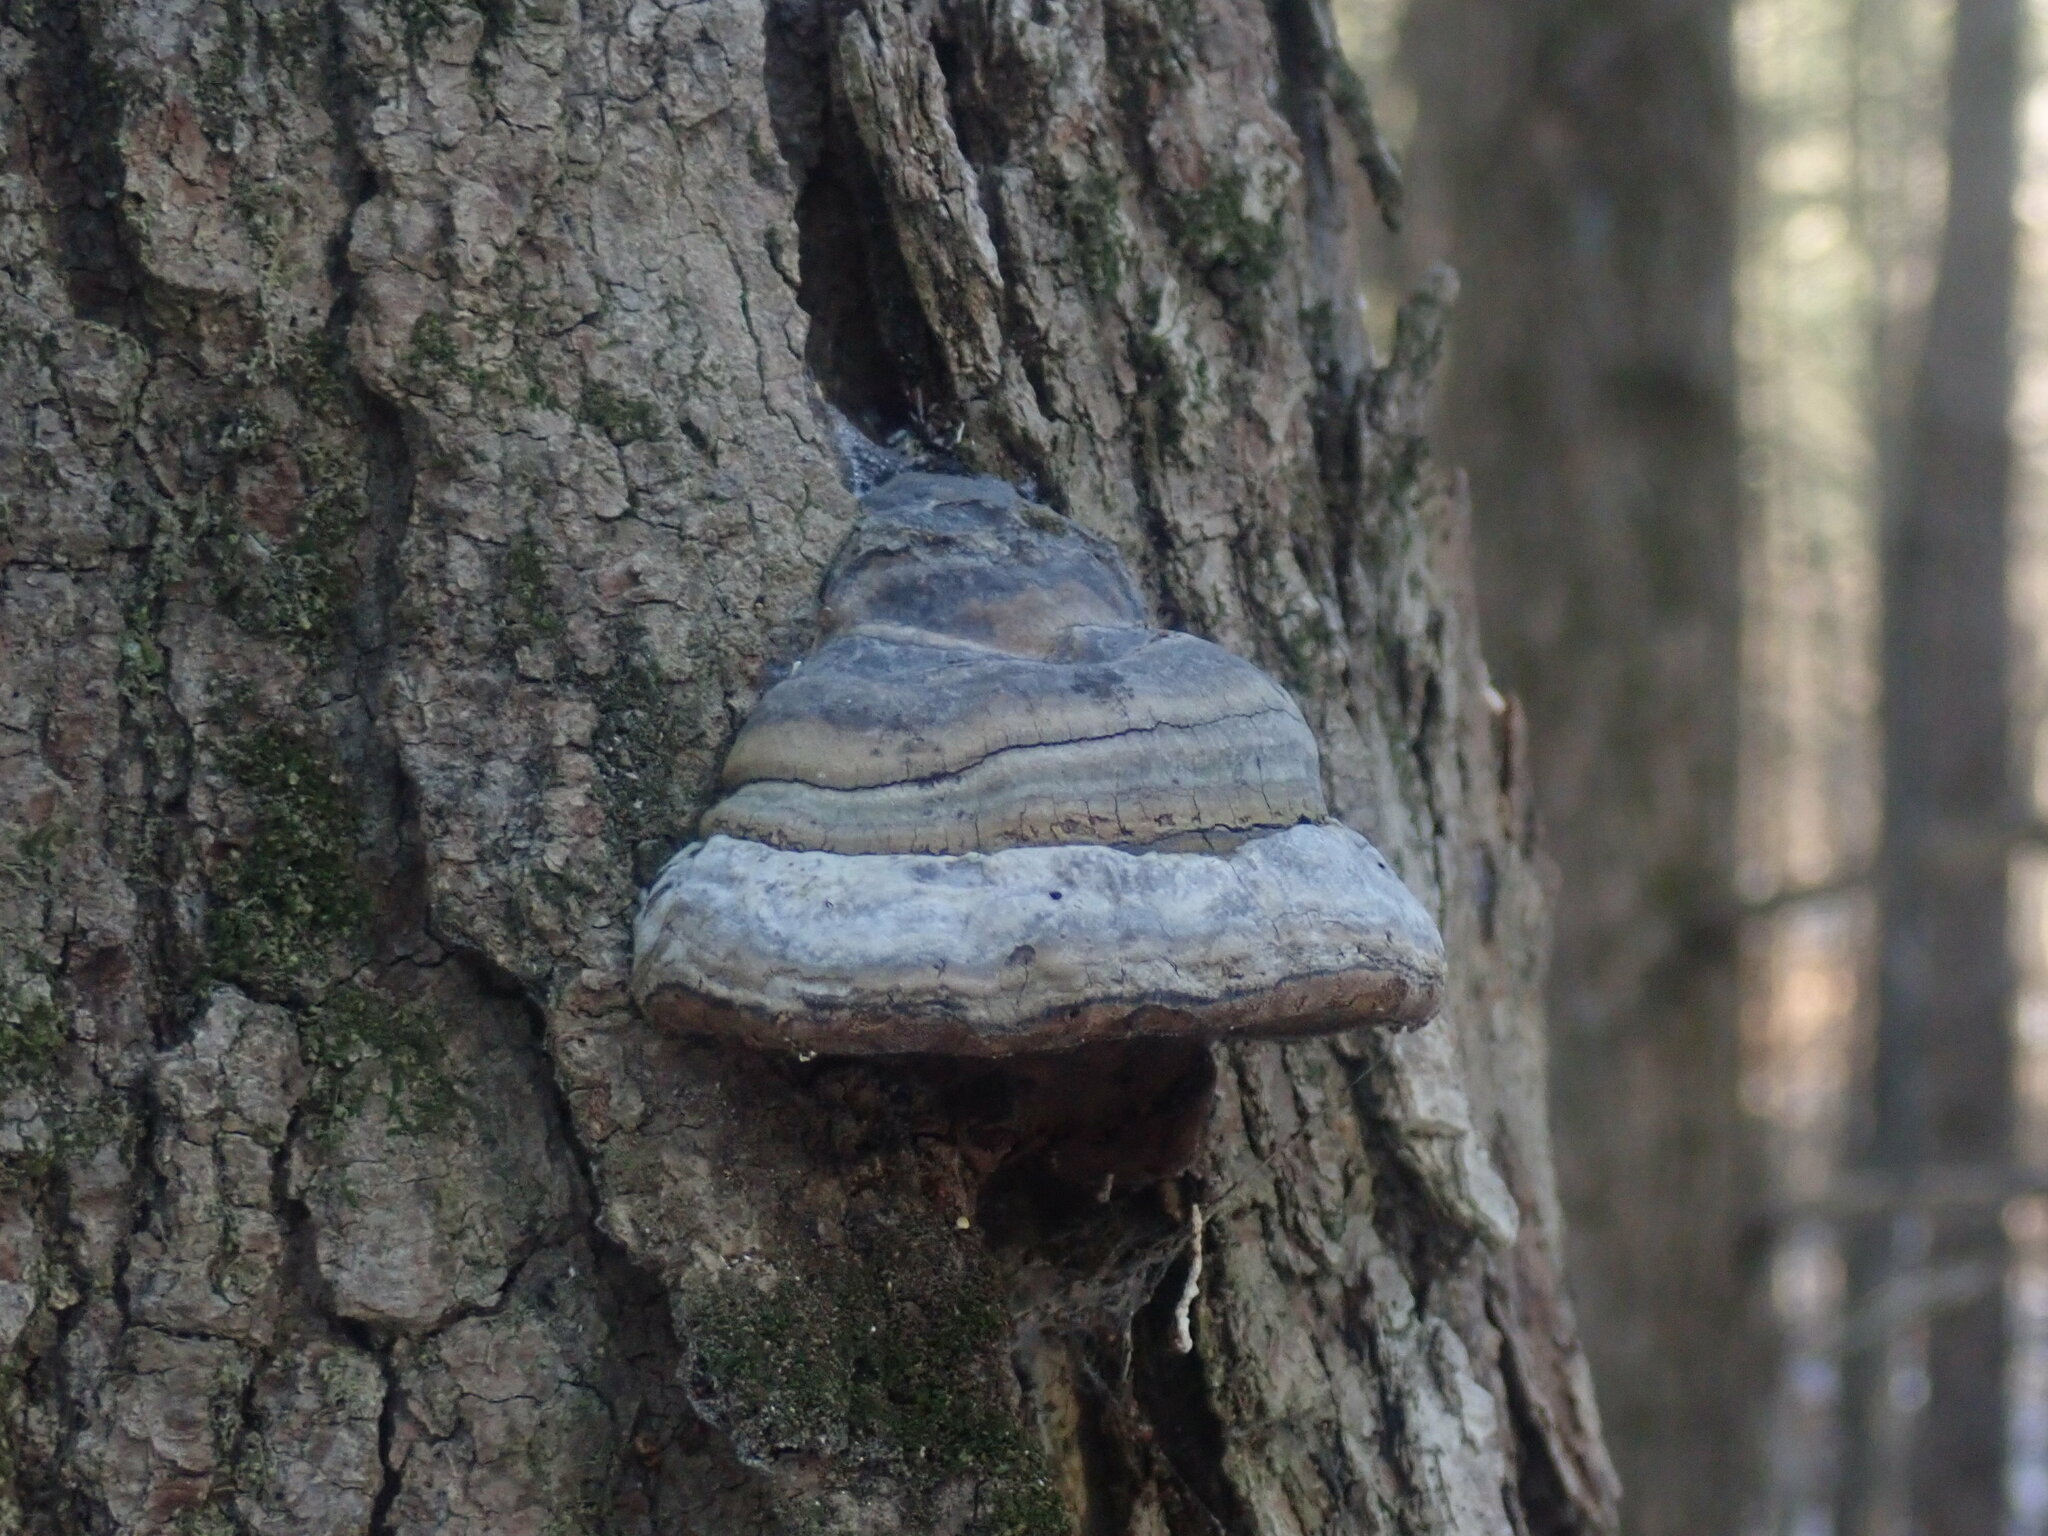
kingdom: Fungi
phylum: Basidiomycota
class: Agaricomycetes
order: Polyporales
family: Polyporaceae
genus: Fomes
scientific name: Fomes fomentarius
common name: Hoof fungus
